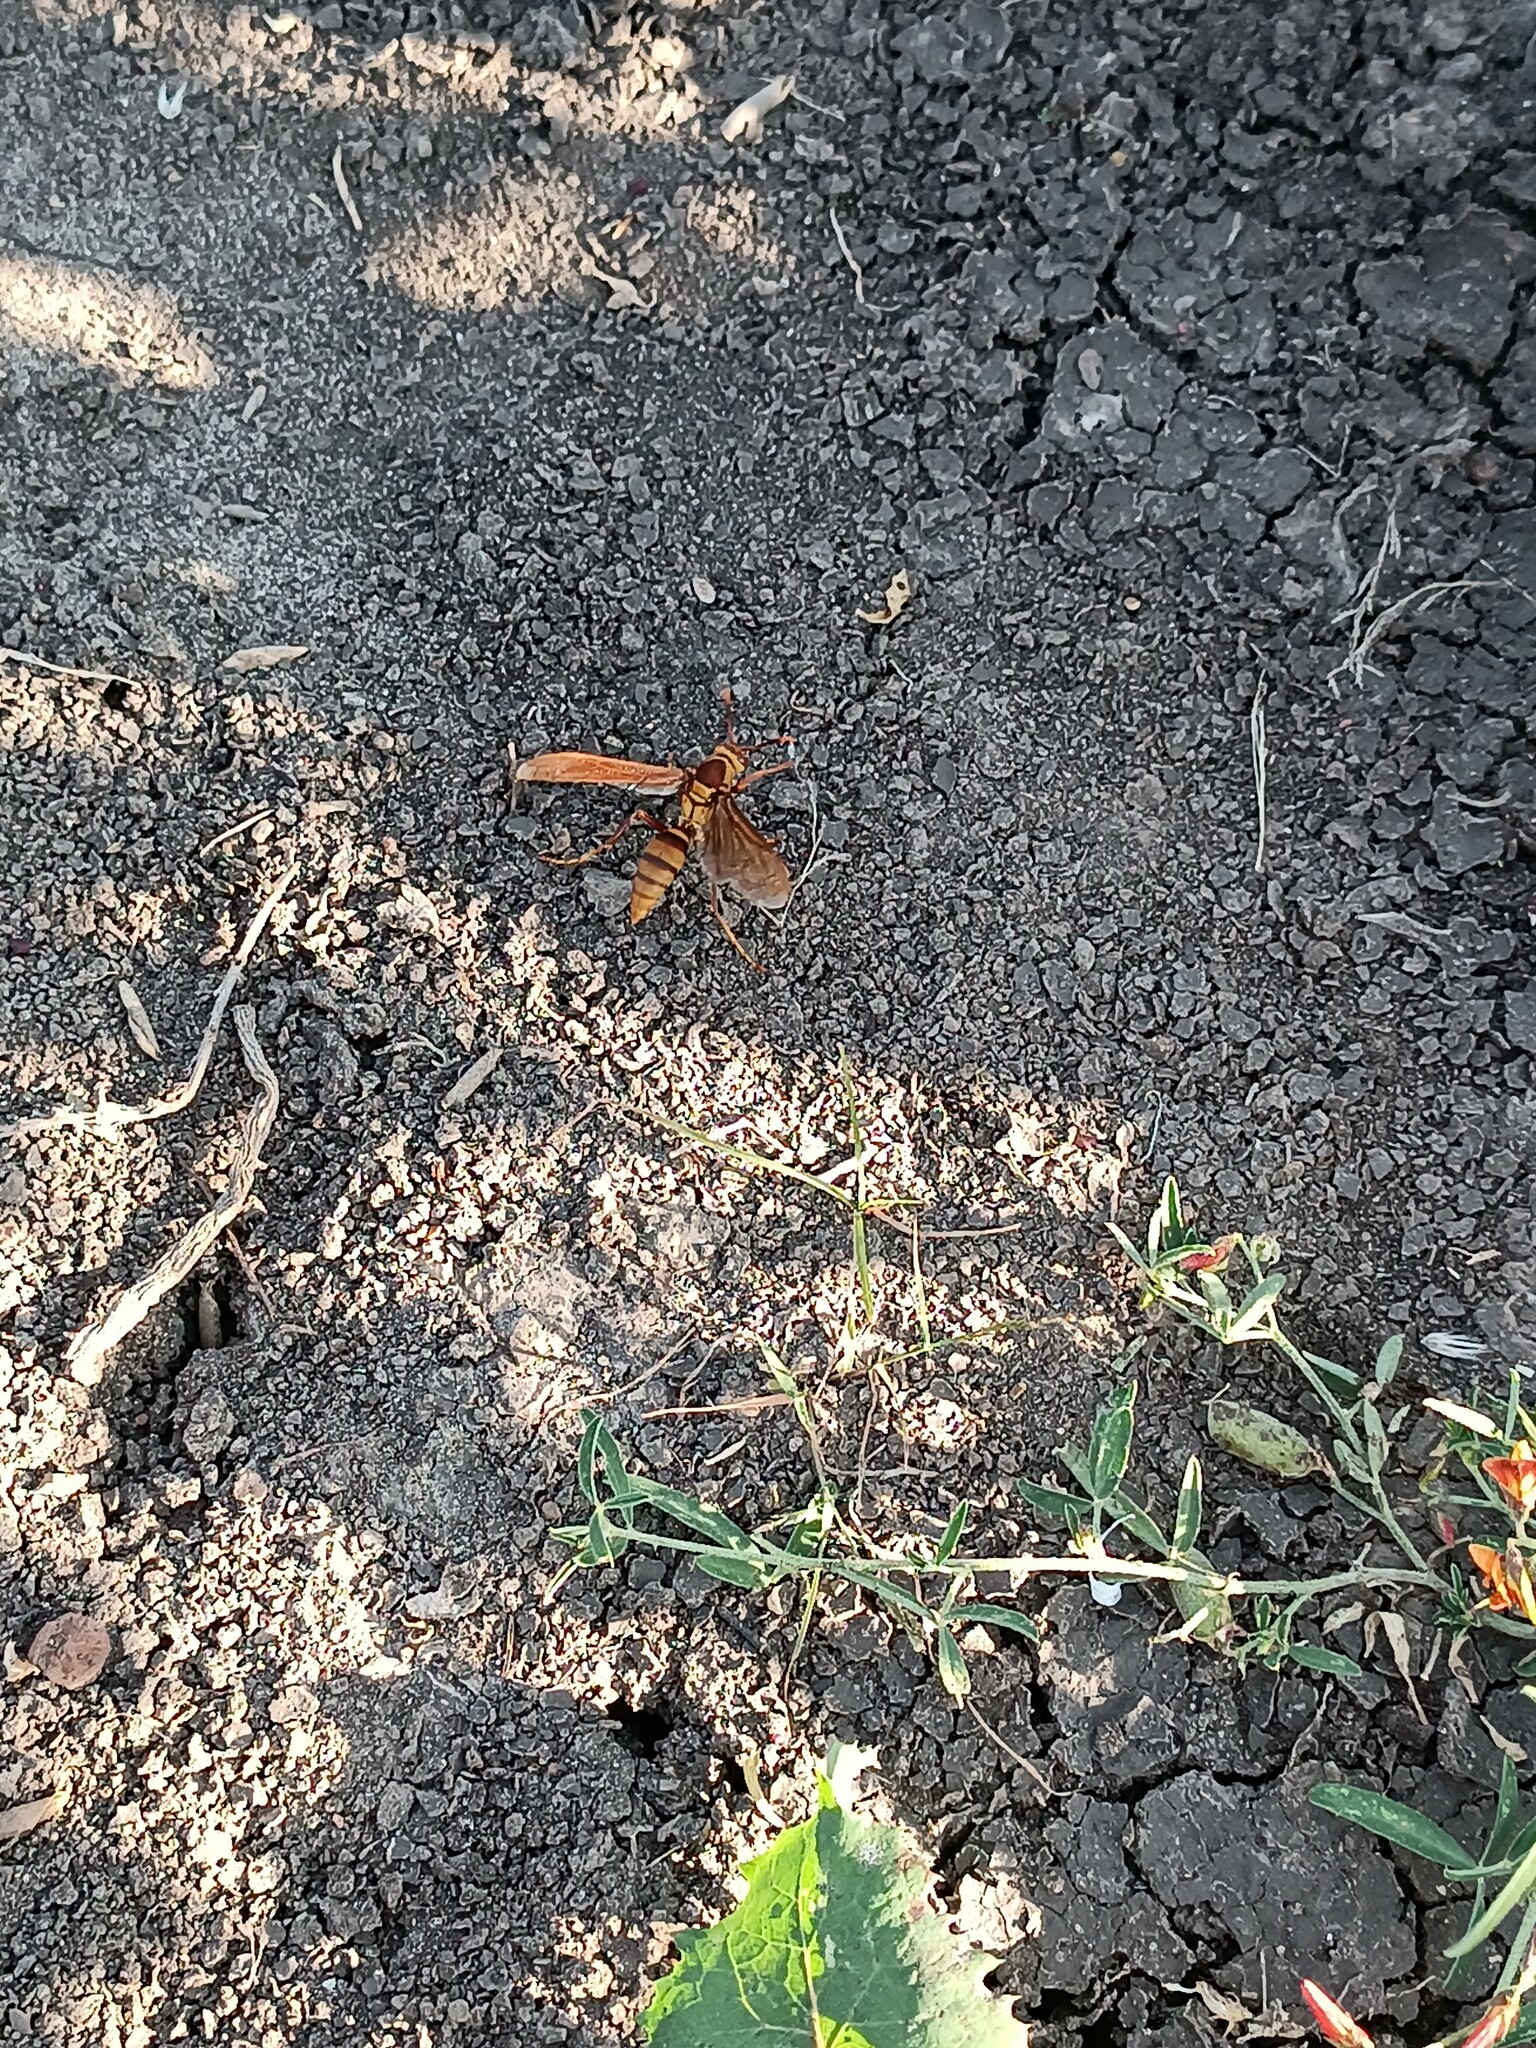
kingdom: Animalia
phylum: Arthropoda
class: Insecta
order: Hymenoptera
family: Eumenidae
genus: Polistes
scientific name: Polistes major
